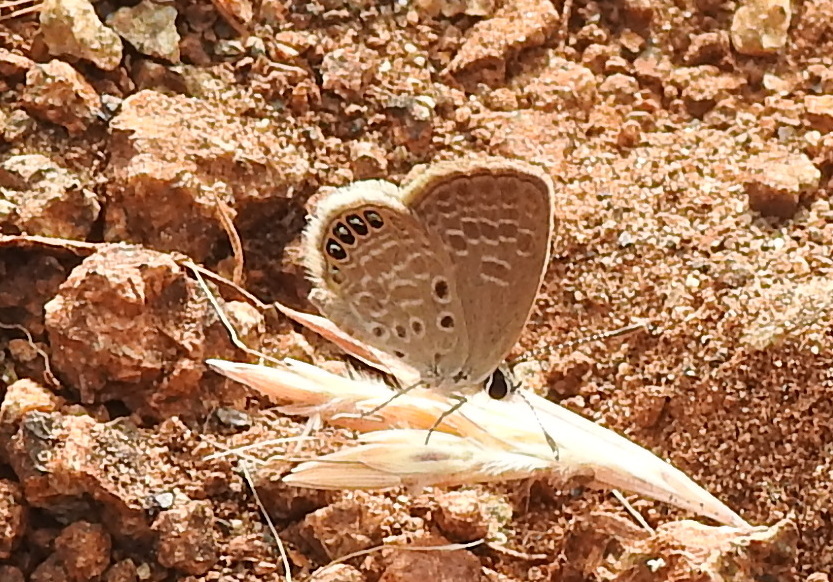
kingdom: Animalia
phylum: Arthropoda
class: Insecta
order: Lepidoptera
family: Lycaenidae
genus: Freyeria
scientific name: Freyeria putli
